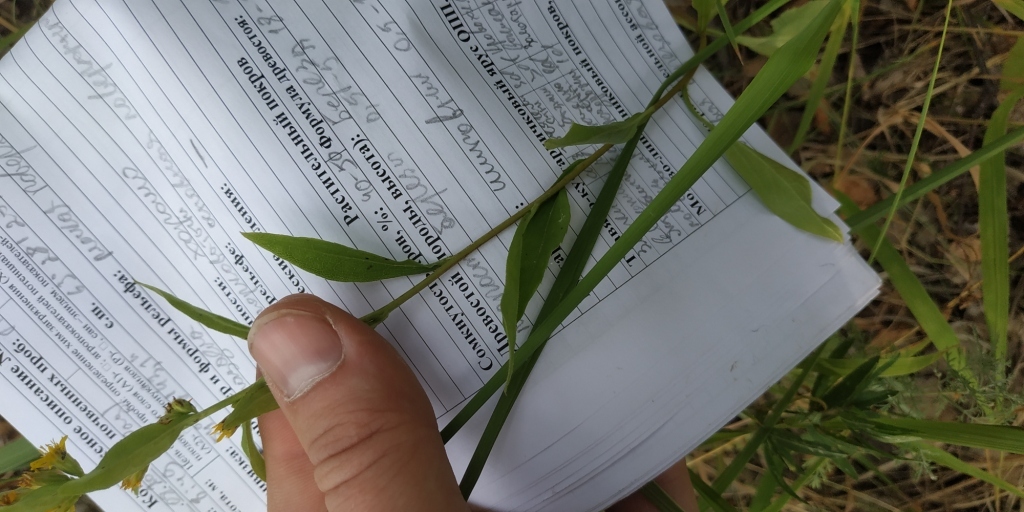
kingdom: Plantae
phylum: Tracheophyta
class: Magnoliopsida
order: Asterales
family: Asteraceae
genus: Solidago
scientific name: Solidago virgaurea
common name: Goldenrod
